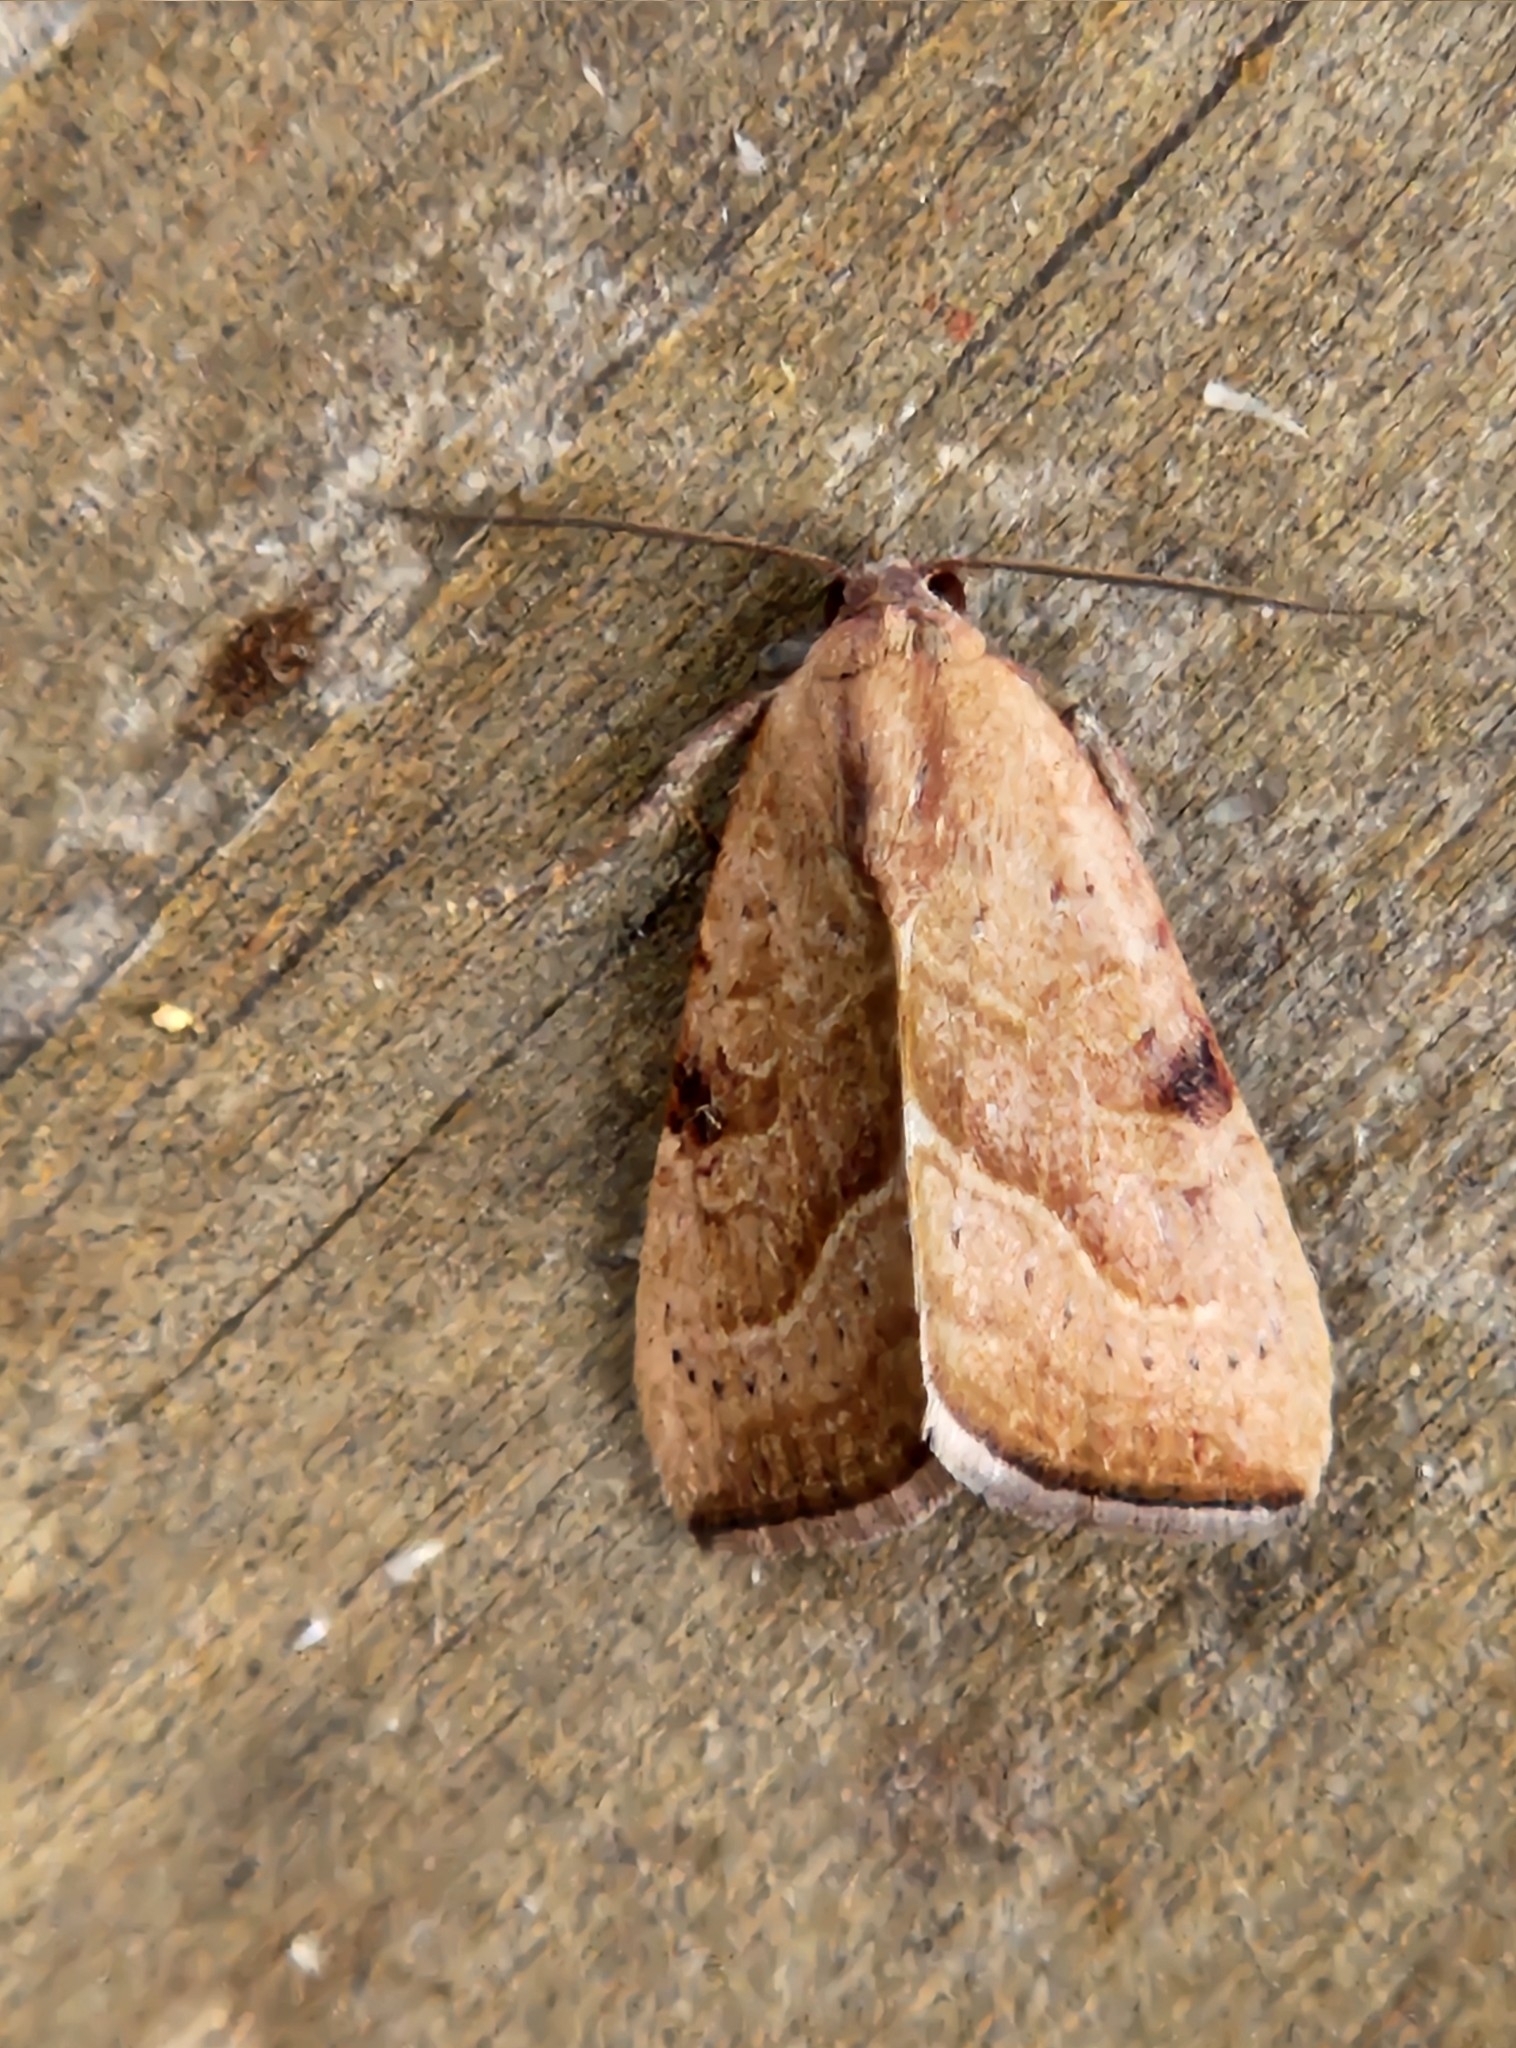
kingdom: Animalia
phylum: Arthropoda
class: Insecta
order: Lepidoptera
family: Noctuidae
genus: Galgula
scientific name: Galgula partita
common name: Wedgeling
